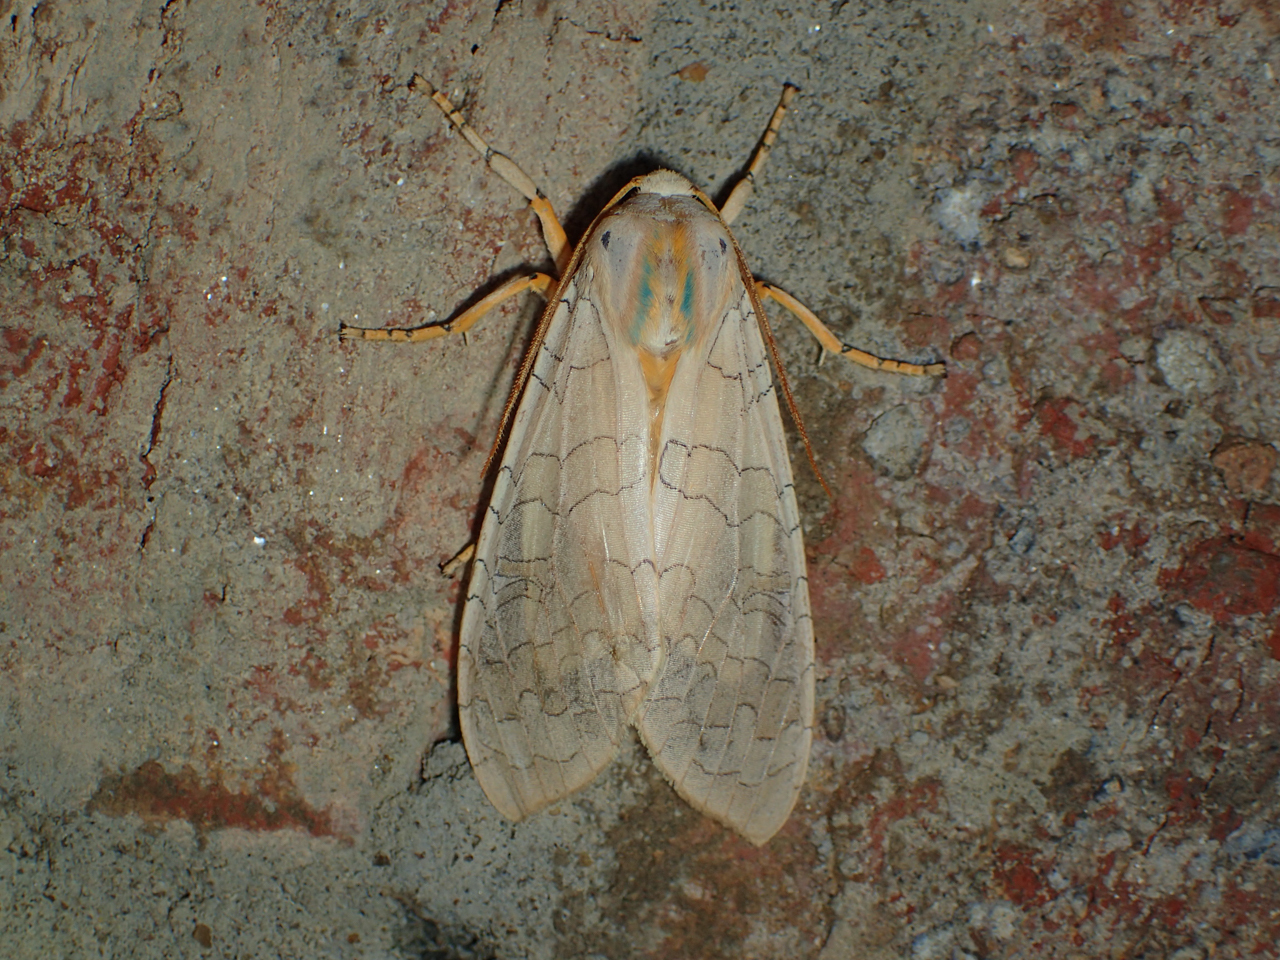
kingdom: Animalia
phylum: Arthropoda
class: Insecta
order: Lepidoptera
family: Erebidae
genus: Halysidota
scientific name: Halysidota
